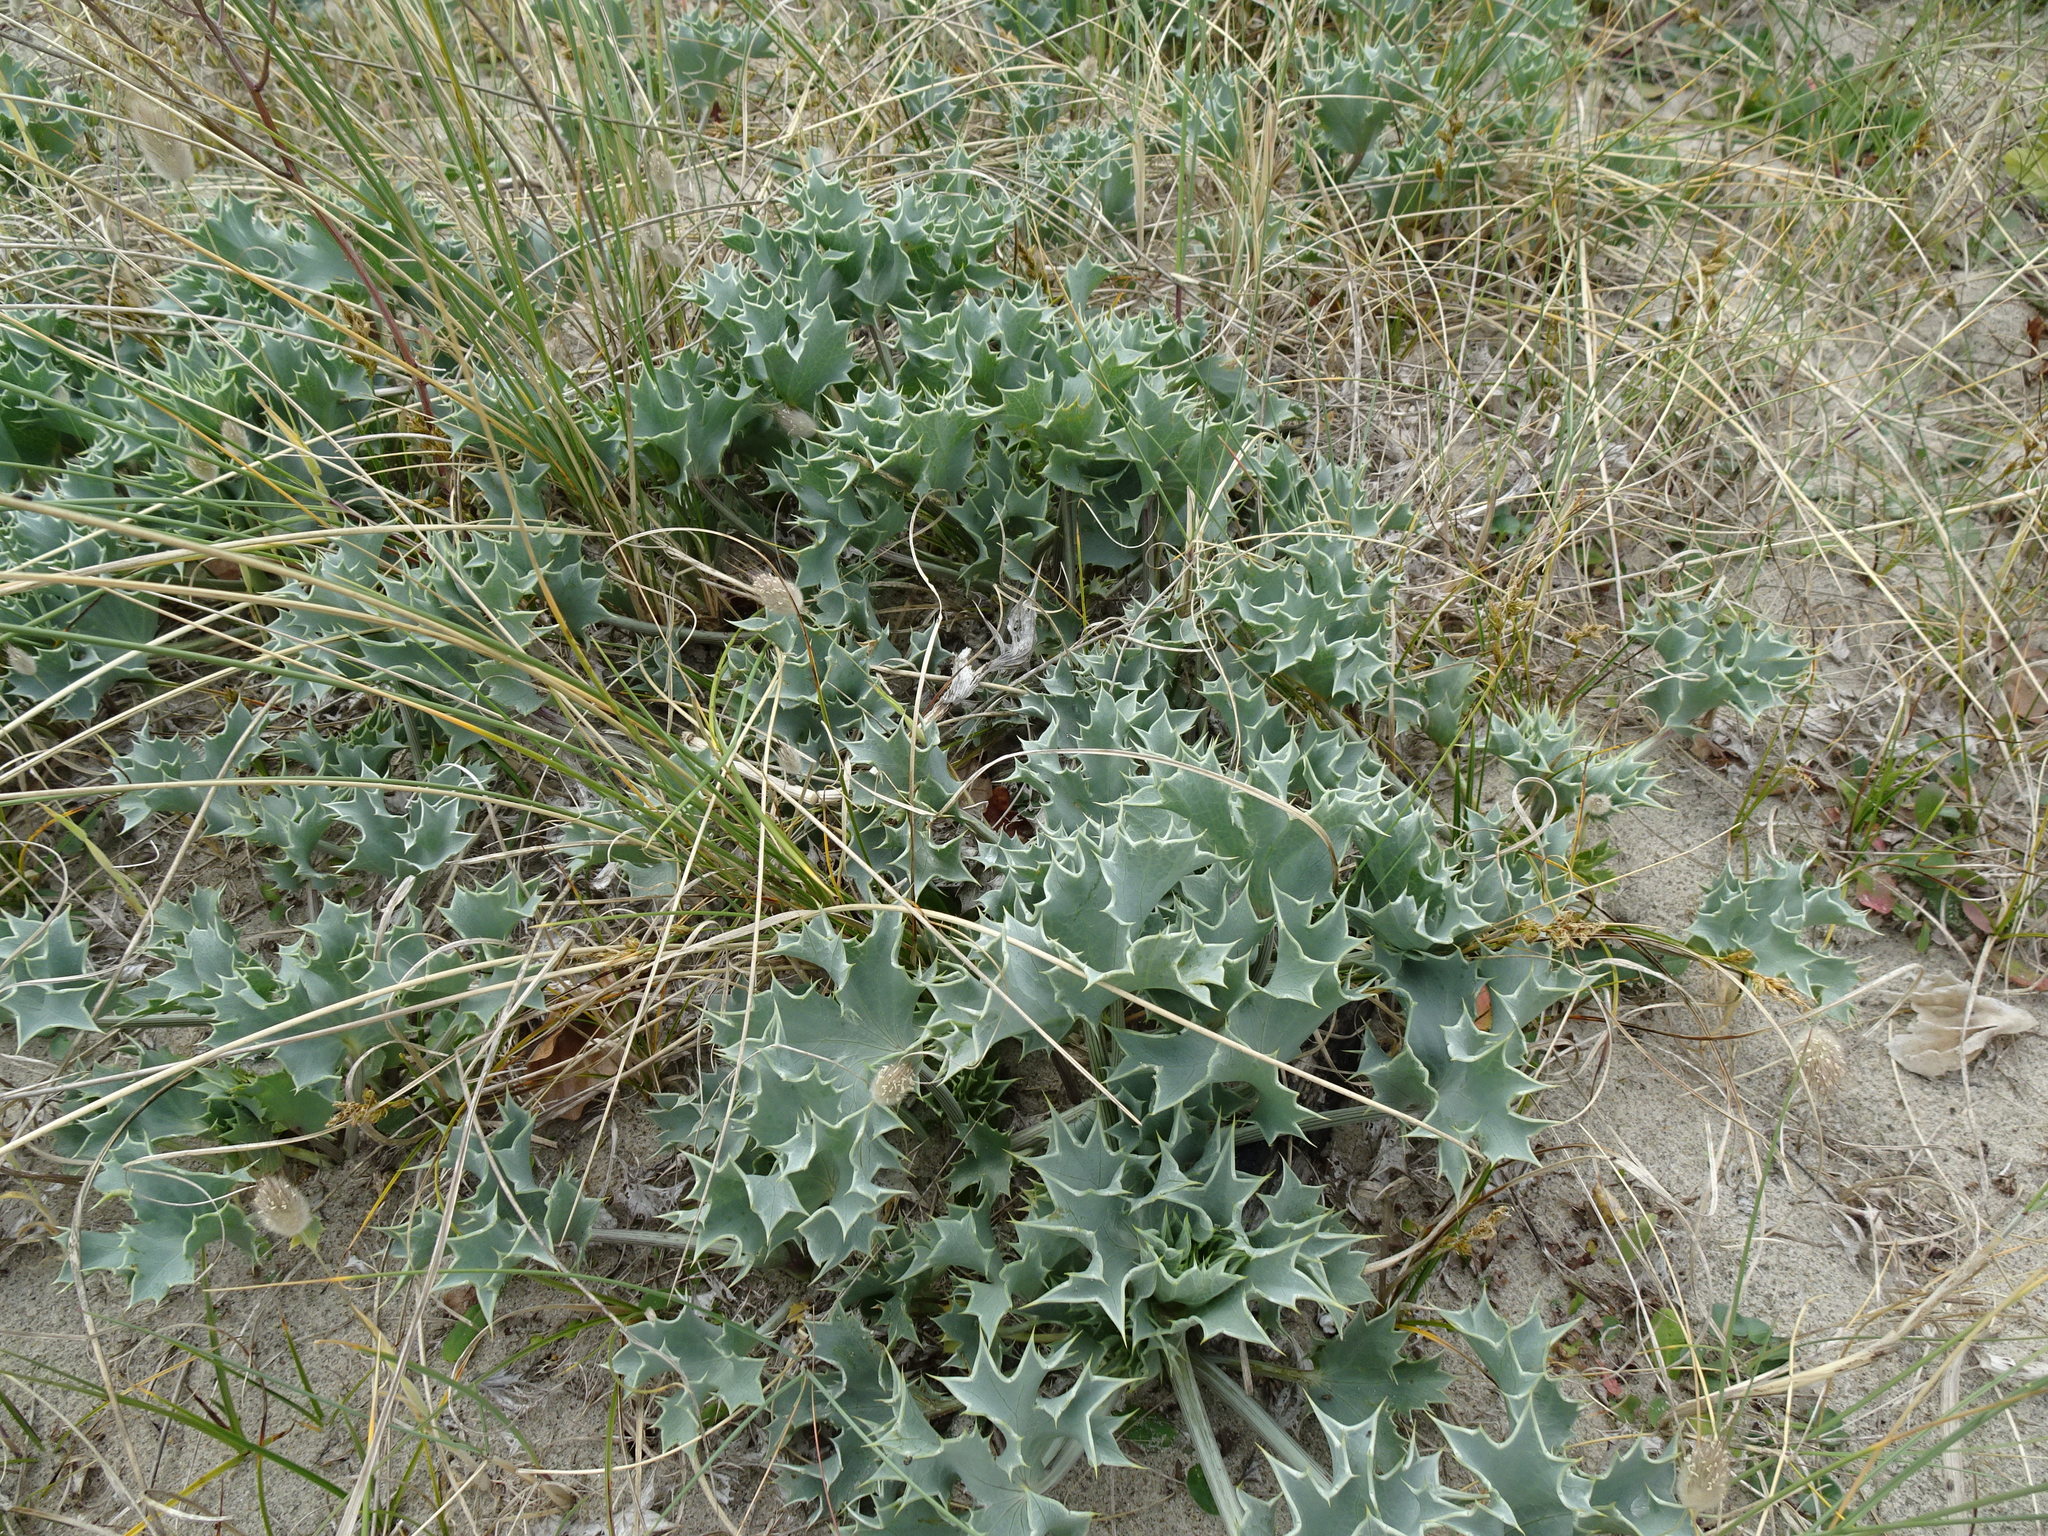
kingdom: Plantae
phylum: Tracheophyta
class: Magnoliopsida
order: Apiales
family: Apiaceae
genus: Eryngium
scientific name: Eryngium maritimum
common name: Sea-holly
